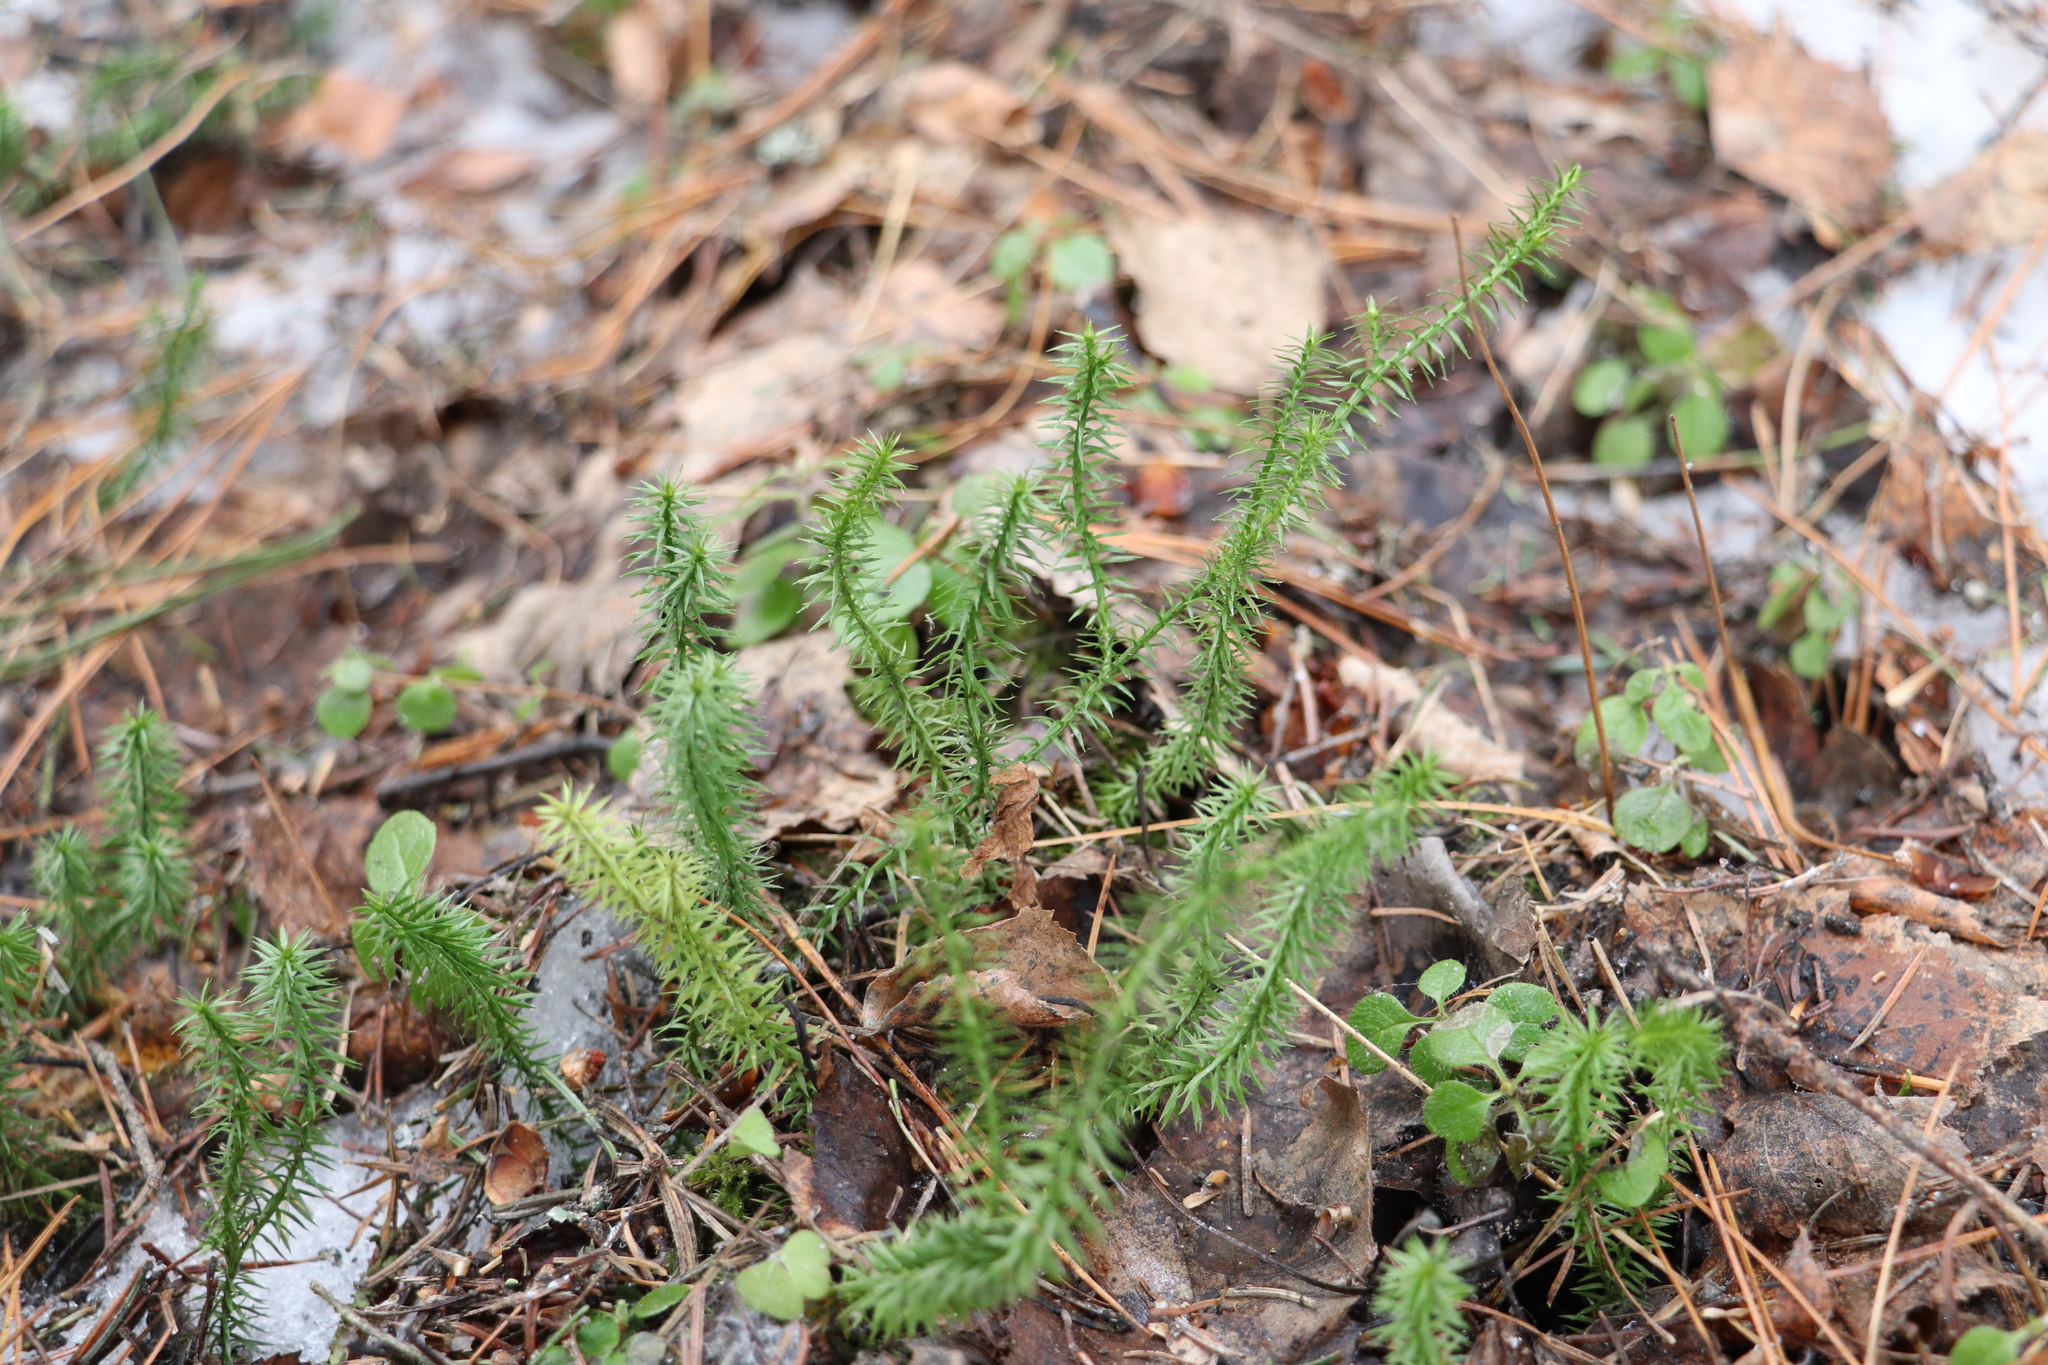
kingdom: Plantae
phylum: Tracheophyta
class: Lycopodiopsida
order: Lycopodiales
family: Lycopodiaceae
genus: Spinulum
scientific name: Spinulum annotinum
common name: Interrupted club-moss
